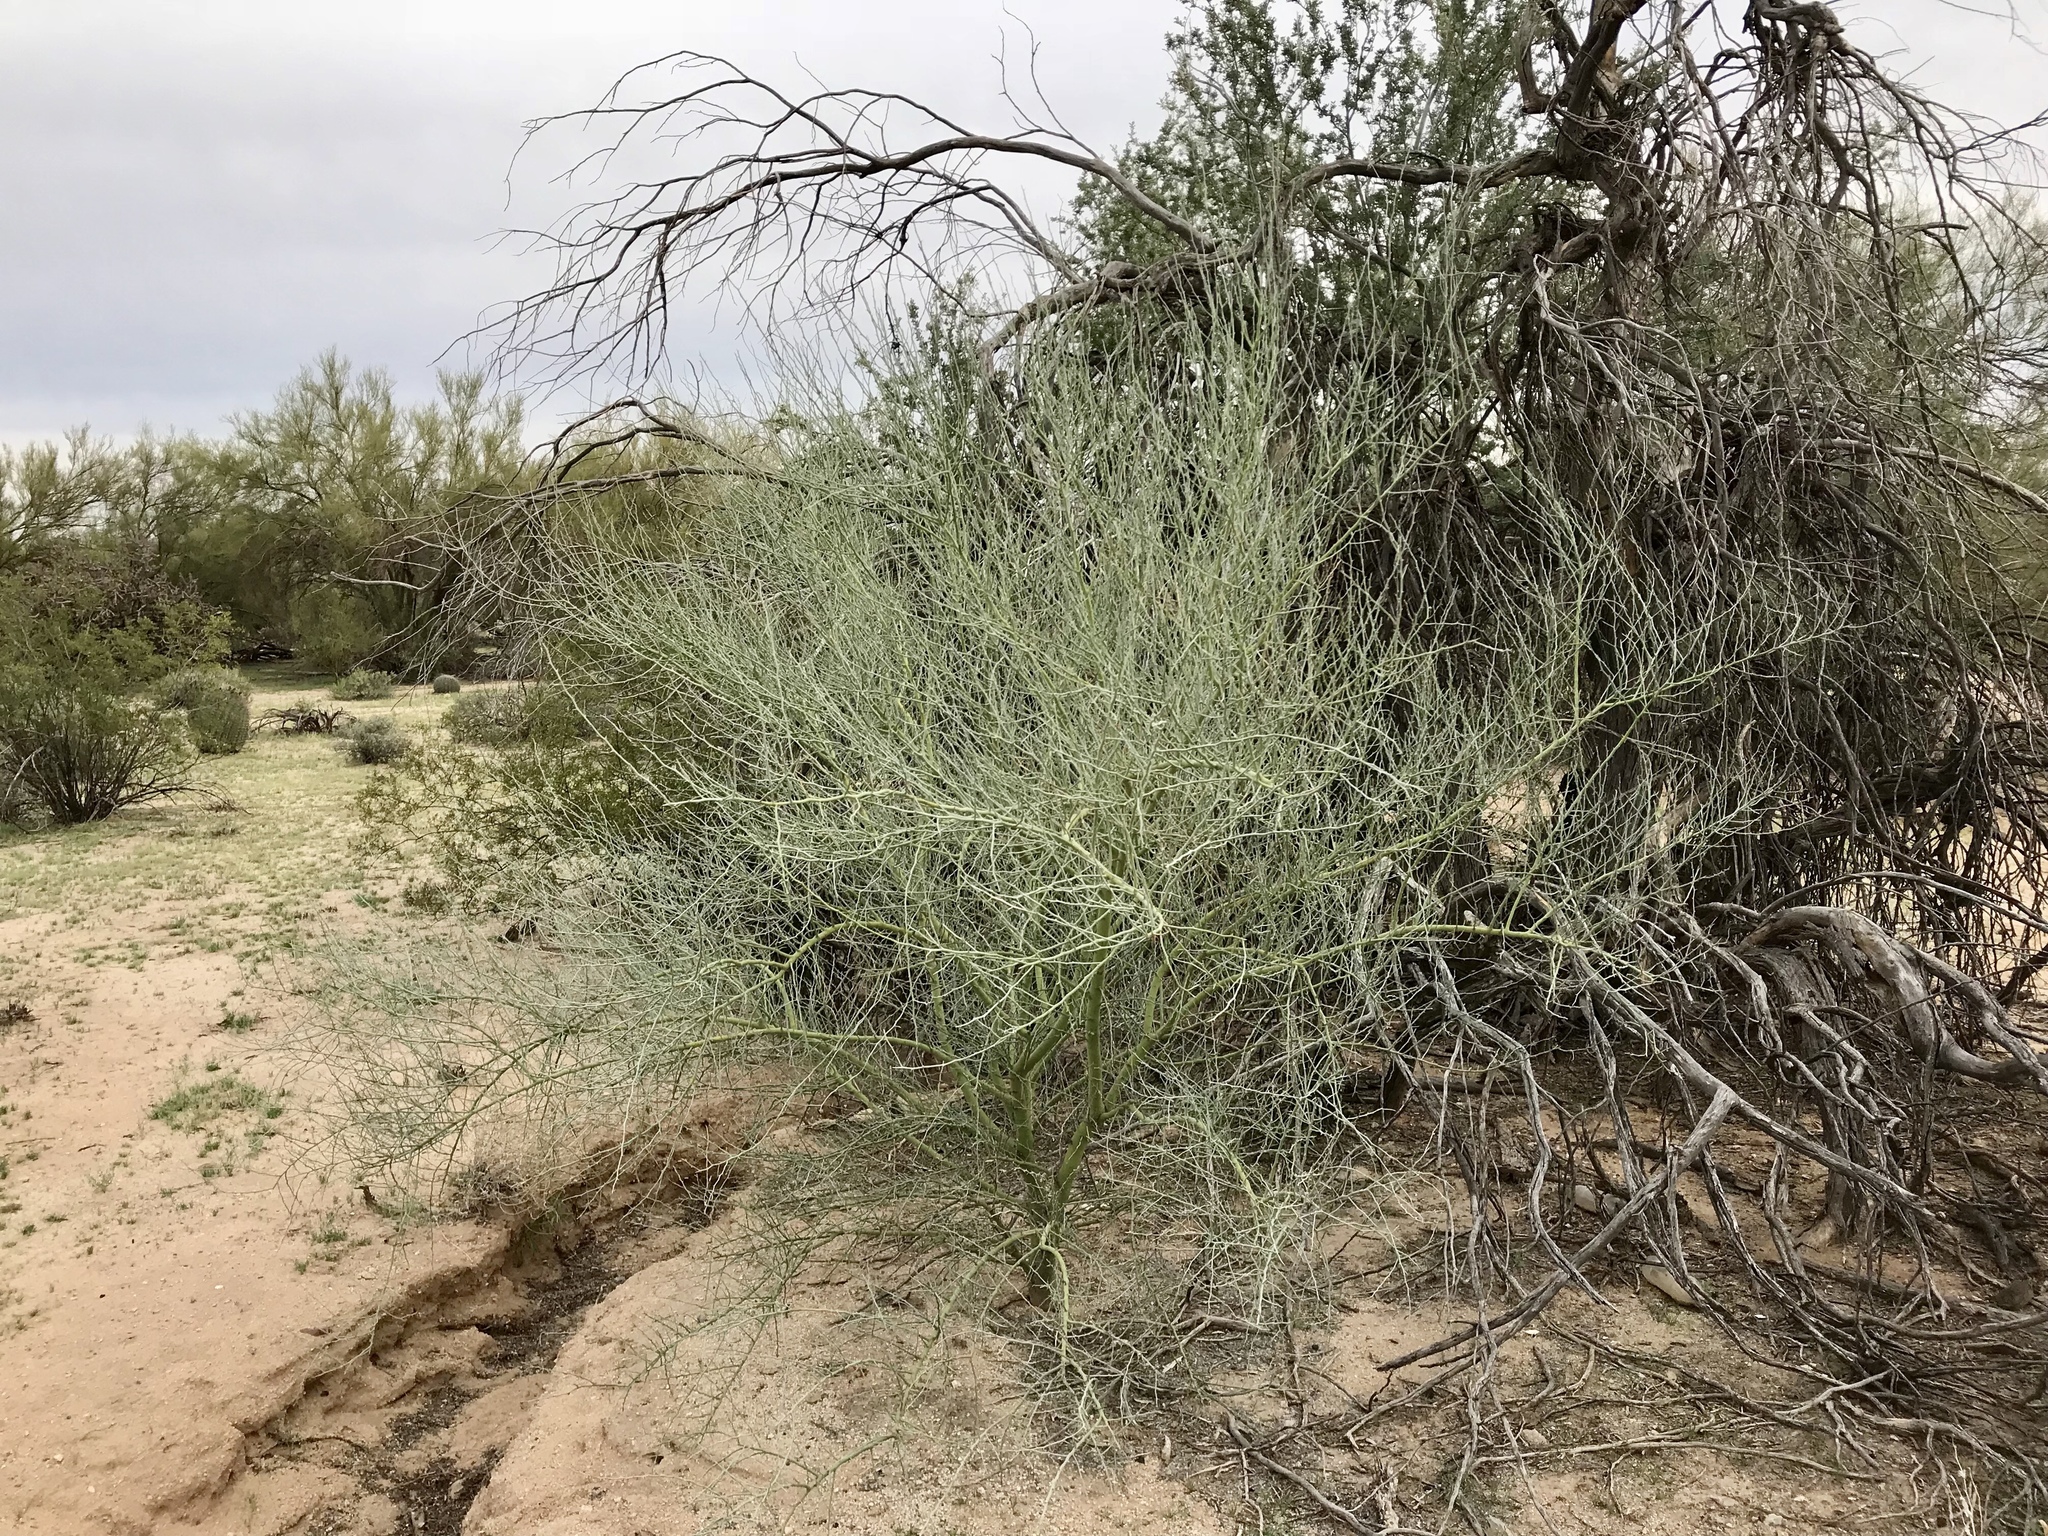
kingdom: Plantae
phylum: Tracheophyta
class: Magnoliopsida
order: Fabales
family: Fabaceae
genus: Parkinsonia
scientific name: Parkinsonia florida
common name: Blue paloverde
